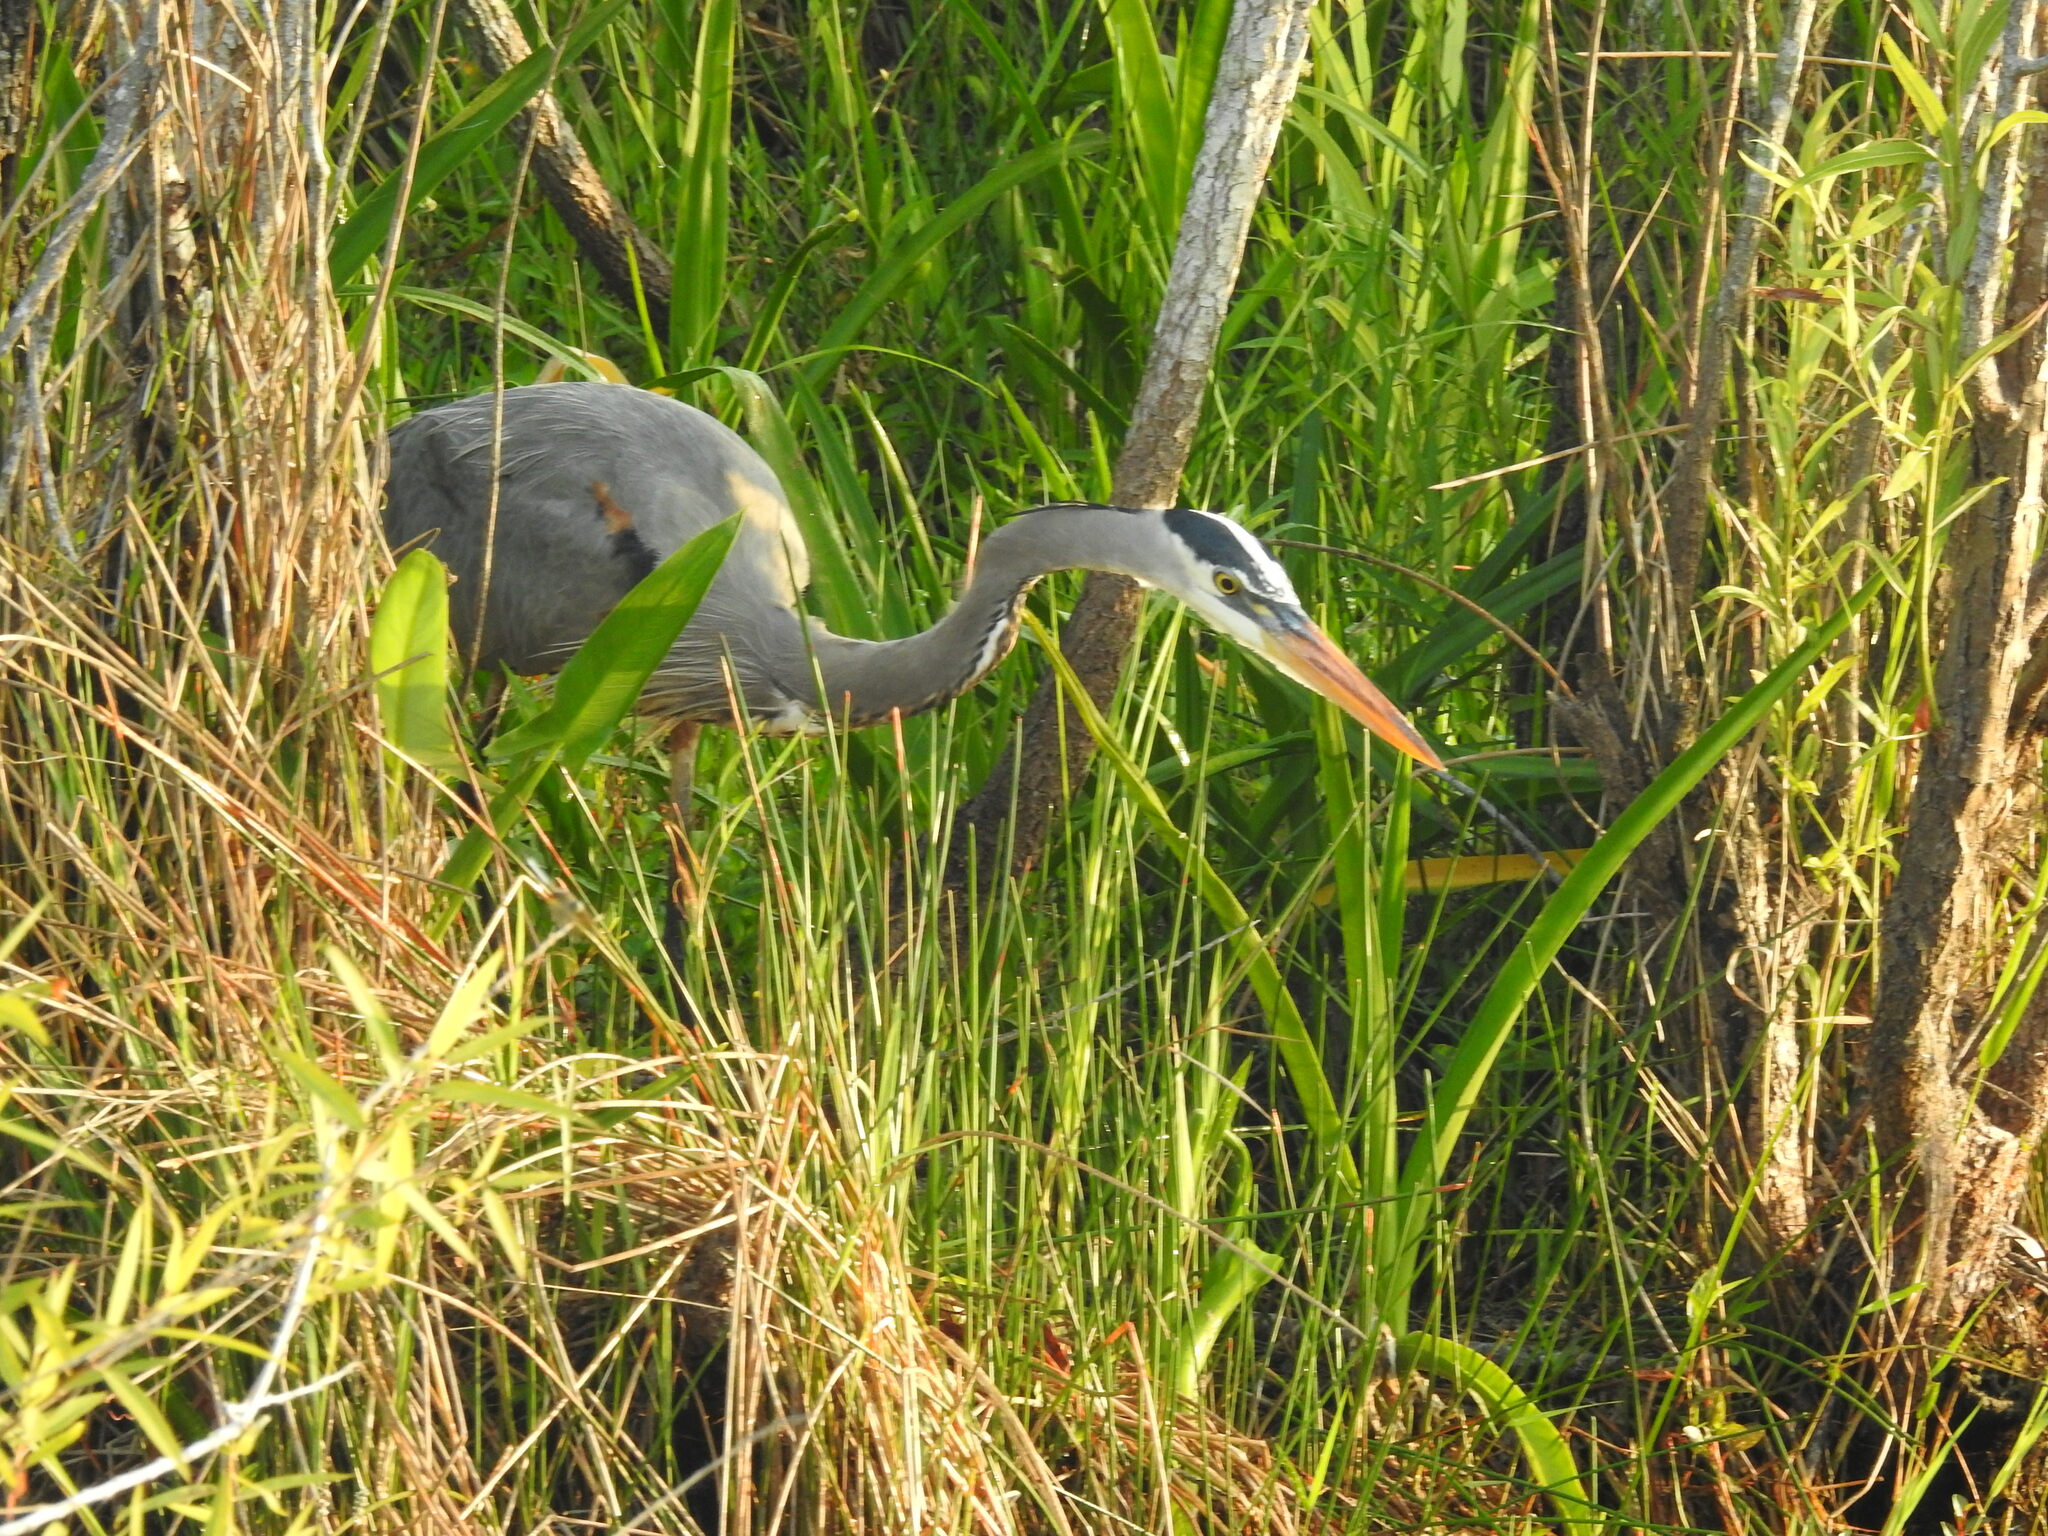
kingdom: Animalia
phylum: Chordata
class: Aves
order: Pelecaniformes
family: Ardeidae
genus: Ardea
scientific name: Ardea herodias
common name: Great blue heron
